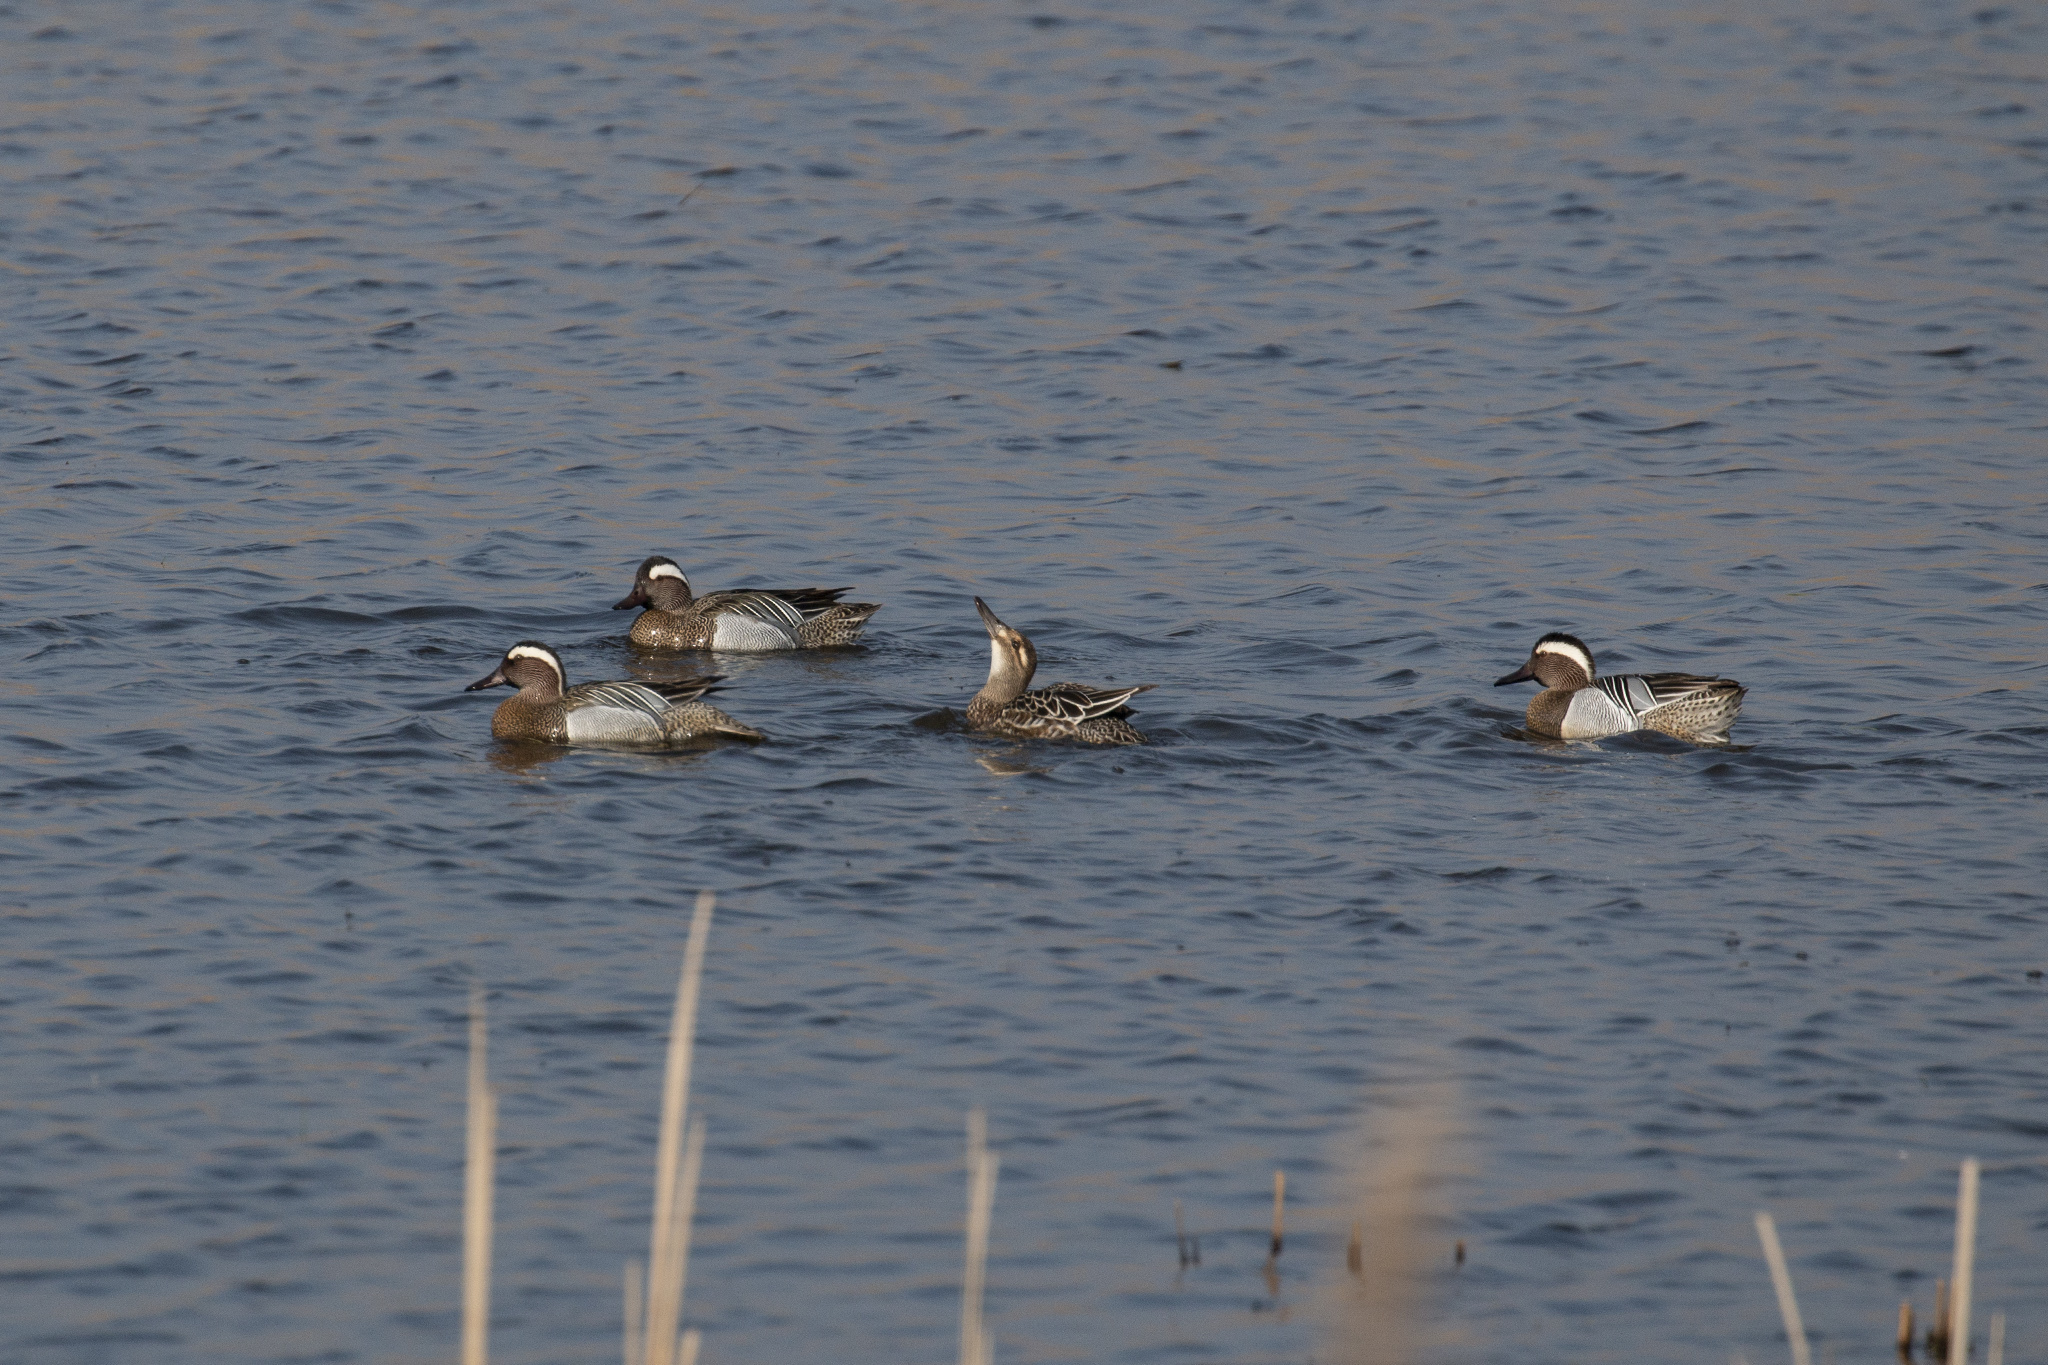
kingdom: Animalia
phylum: Chordata
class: Aves
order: Anseriformes
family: Anatidae
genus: Spatula
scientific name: Spatula querquedula
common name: Garganey
